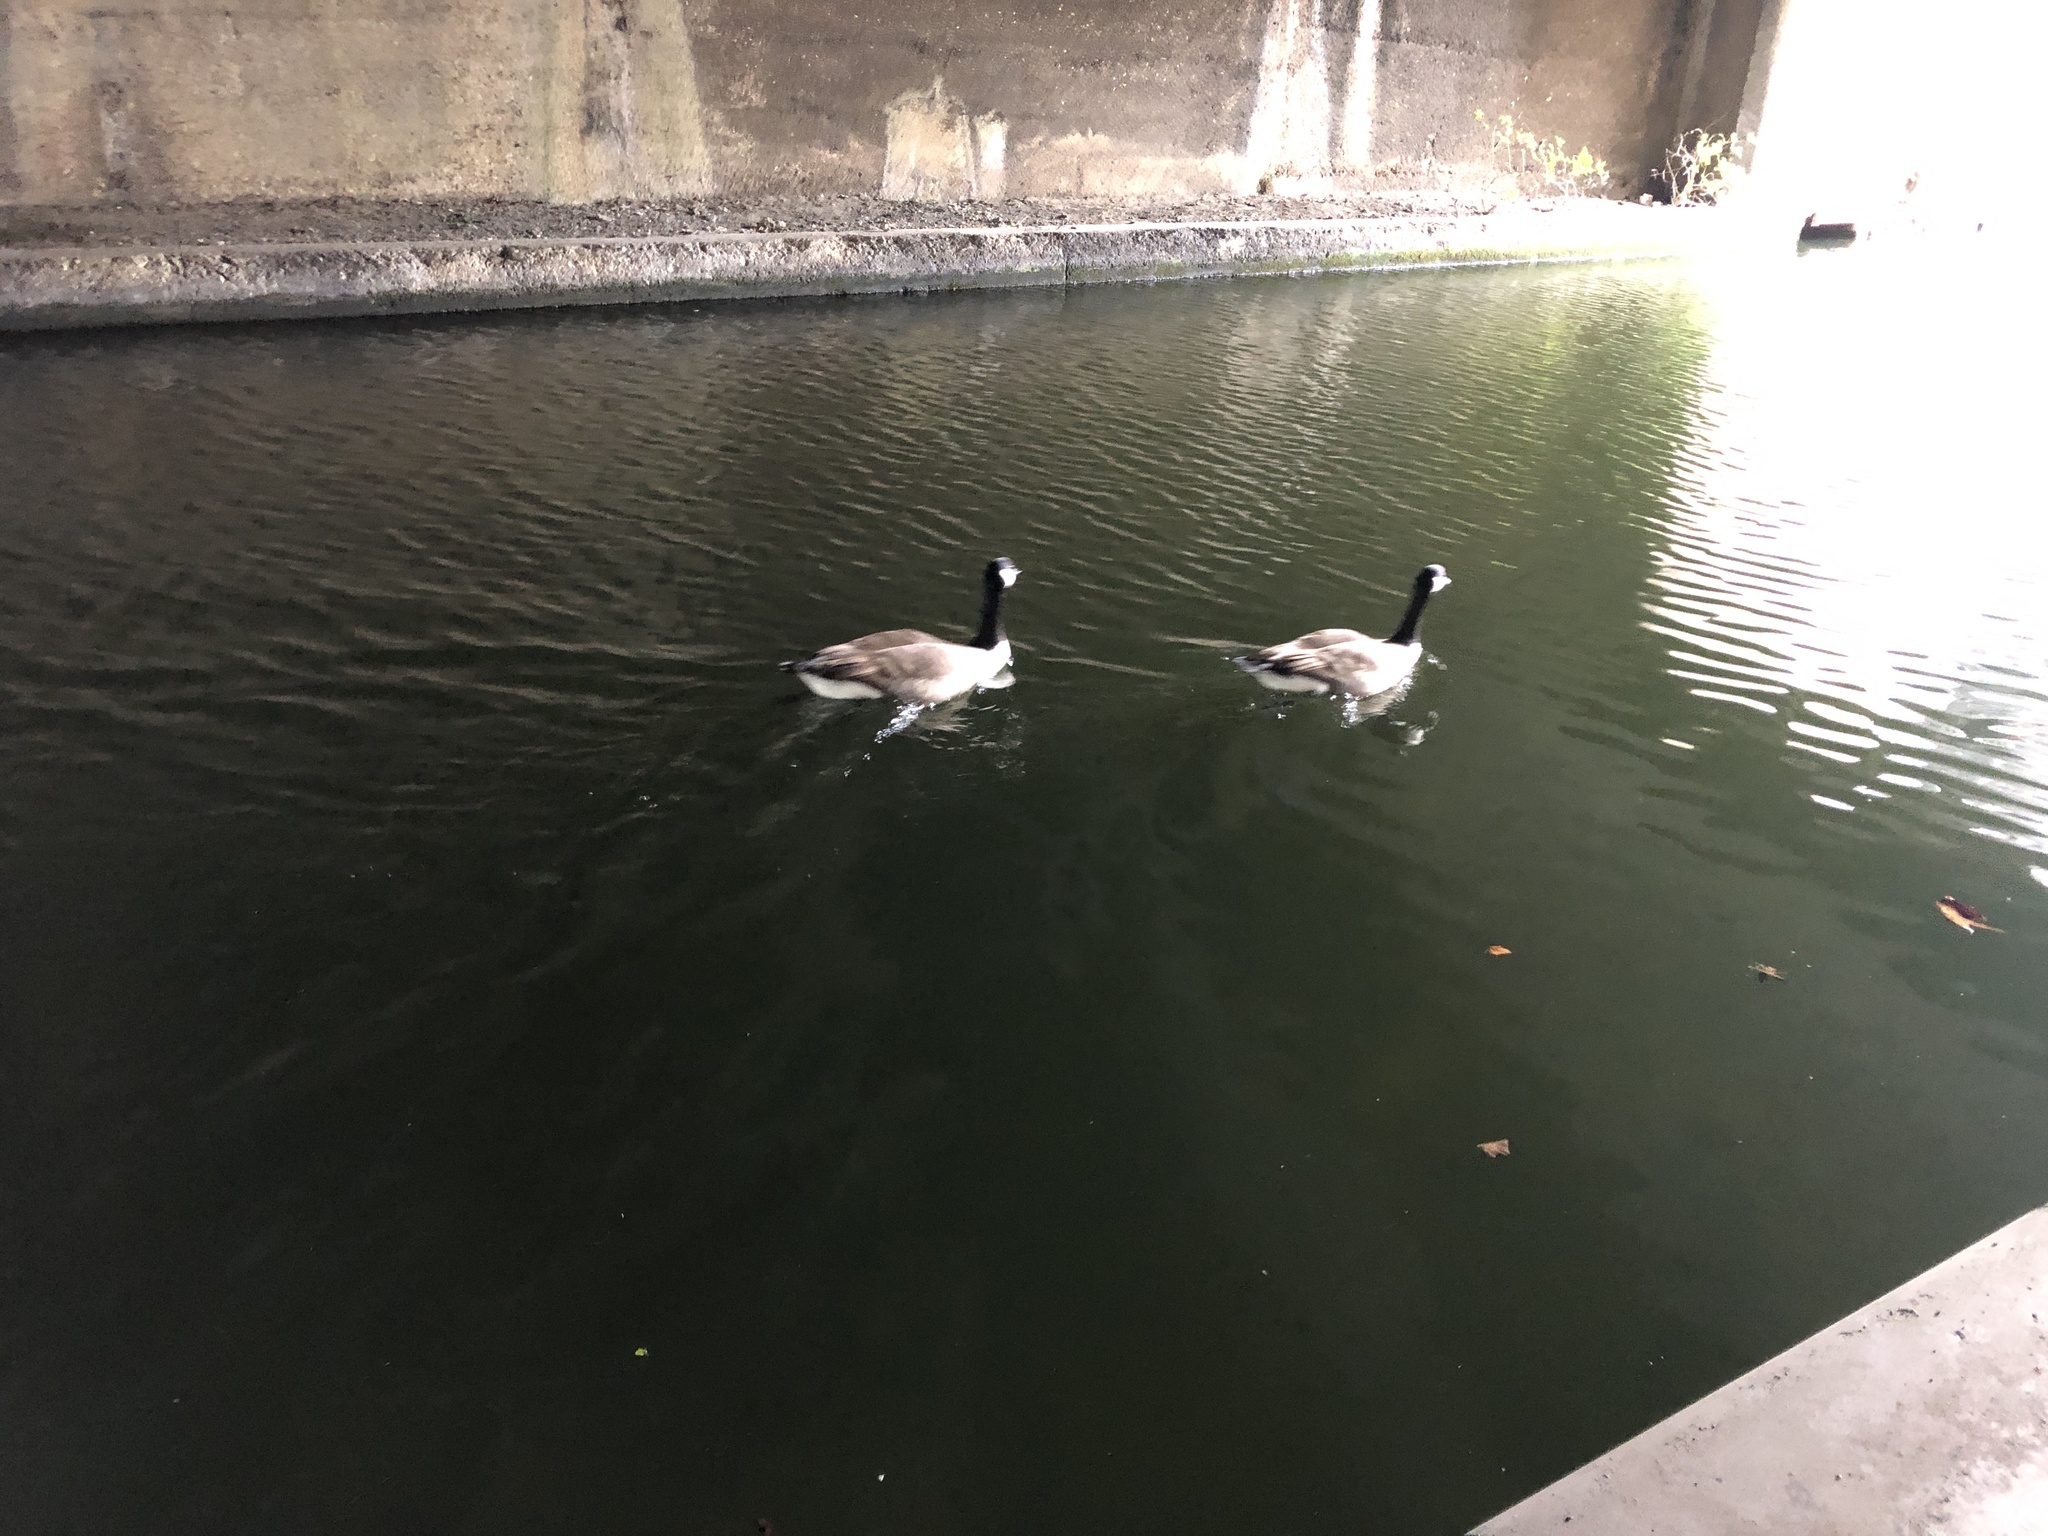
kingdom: Animalia
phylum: Chordata
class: Aves
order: Anseriformes
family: Anatidae
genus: Branta
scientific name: Branta canadensis
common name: Canada goose
